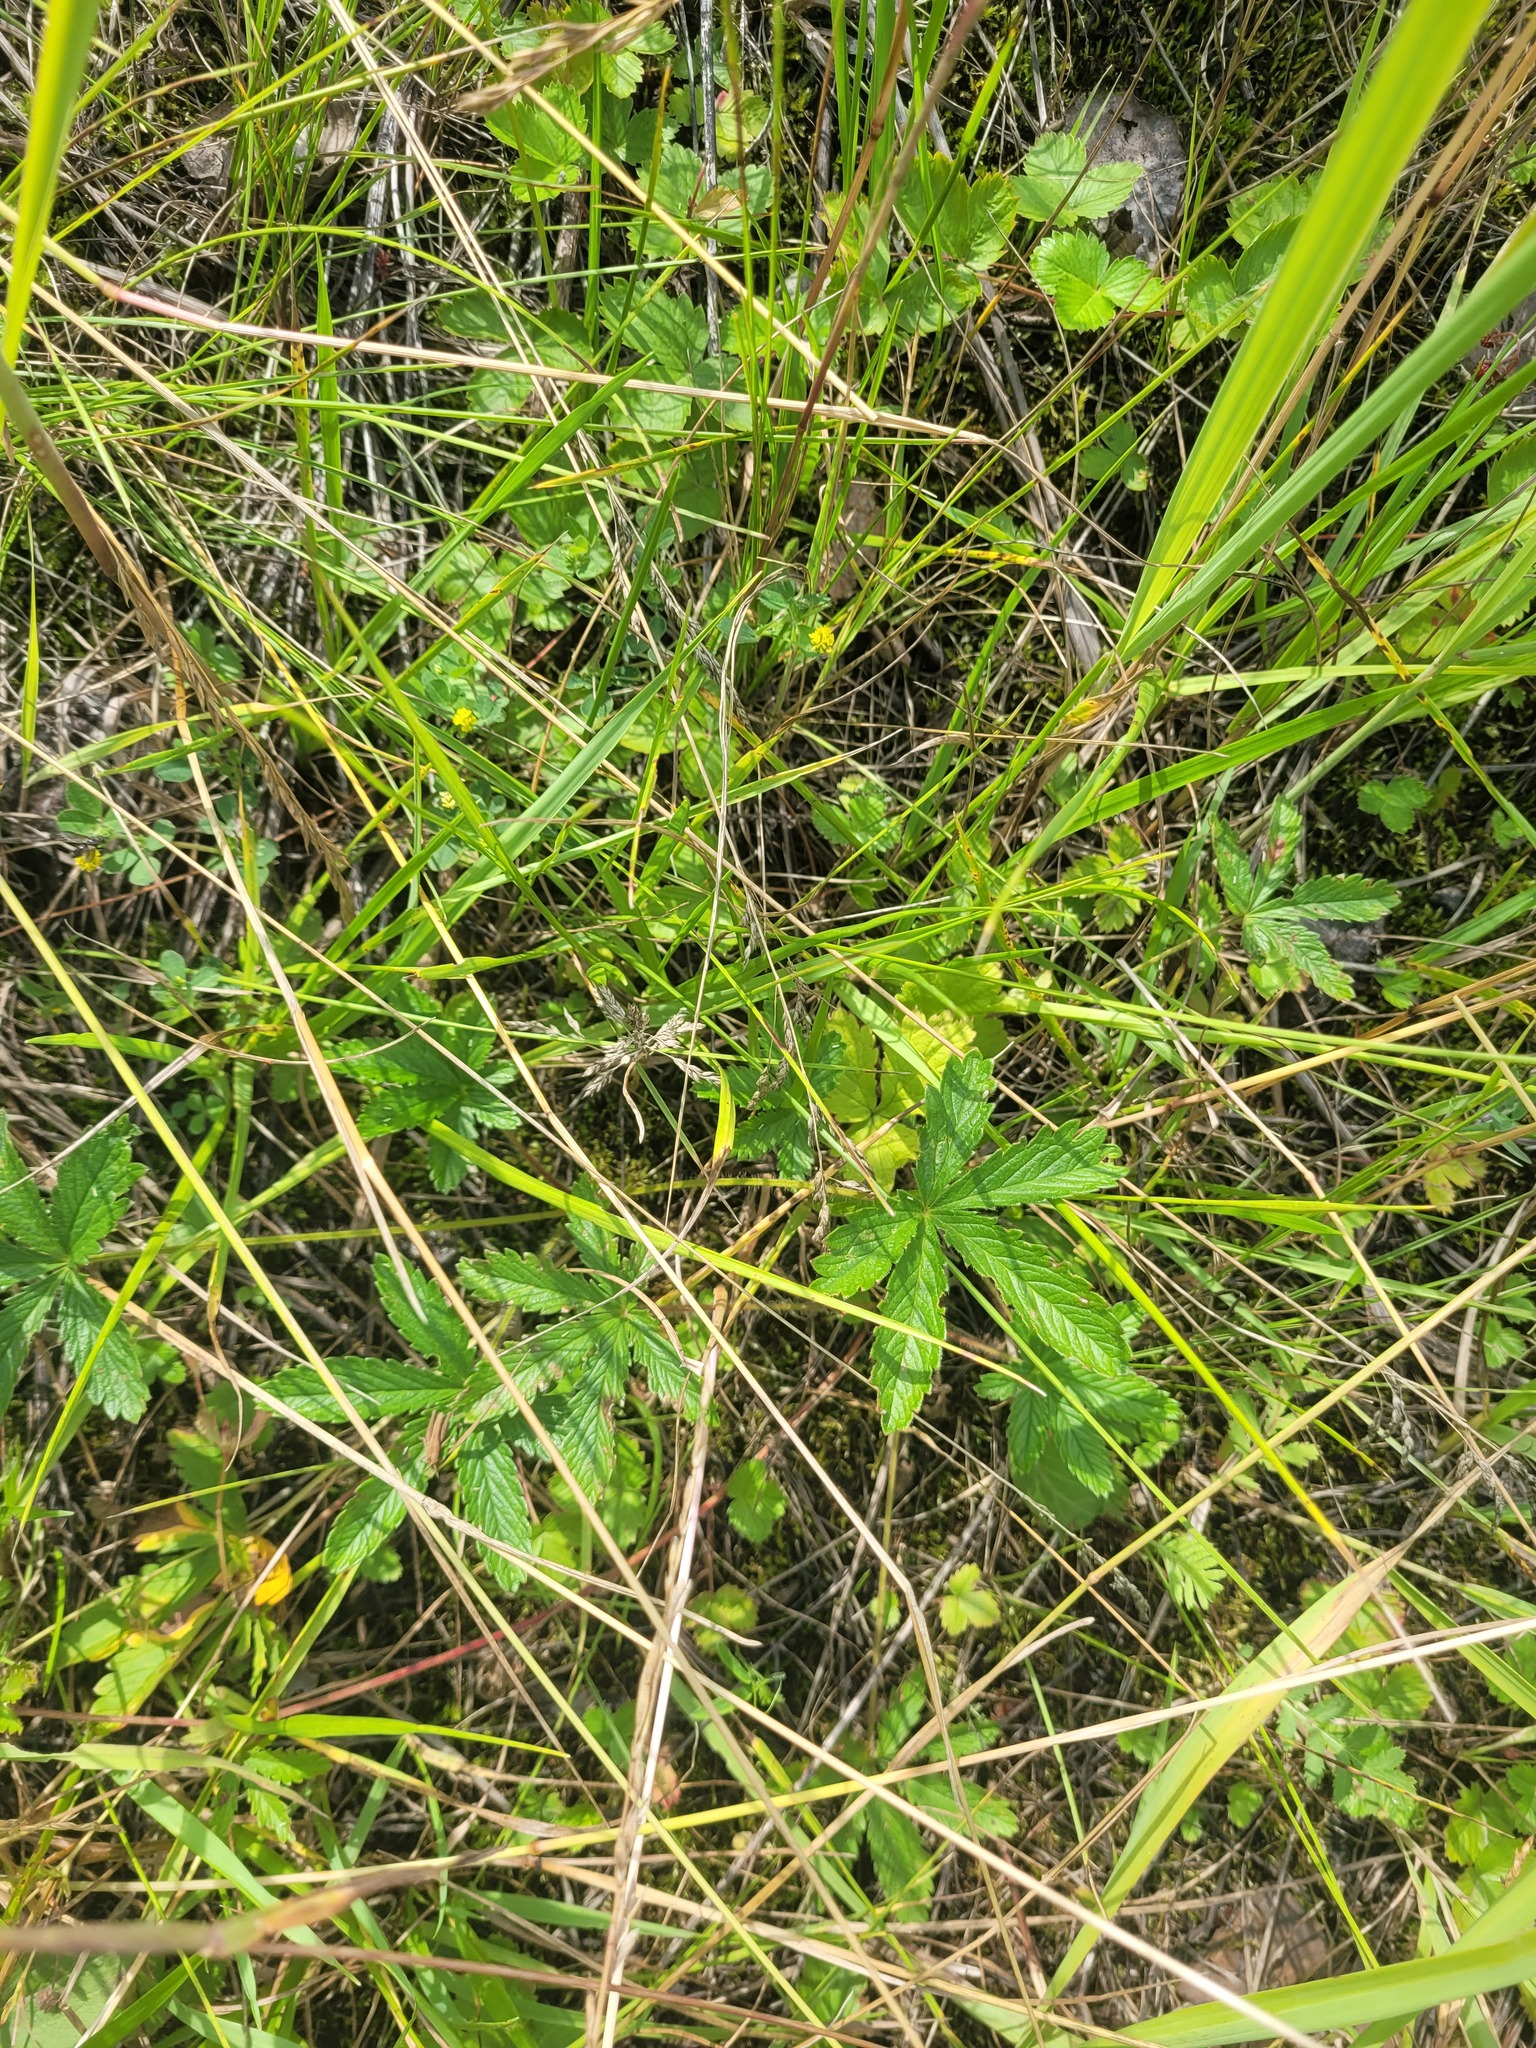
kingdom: Plantae
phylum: Tracheophyta
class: Magnoliopsida
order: Rosales
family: Rosaceae
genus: Potentilla
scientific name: Potentilla thuringiaca
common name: European cinquefoil
